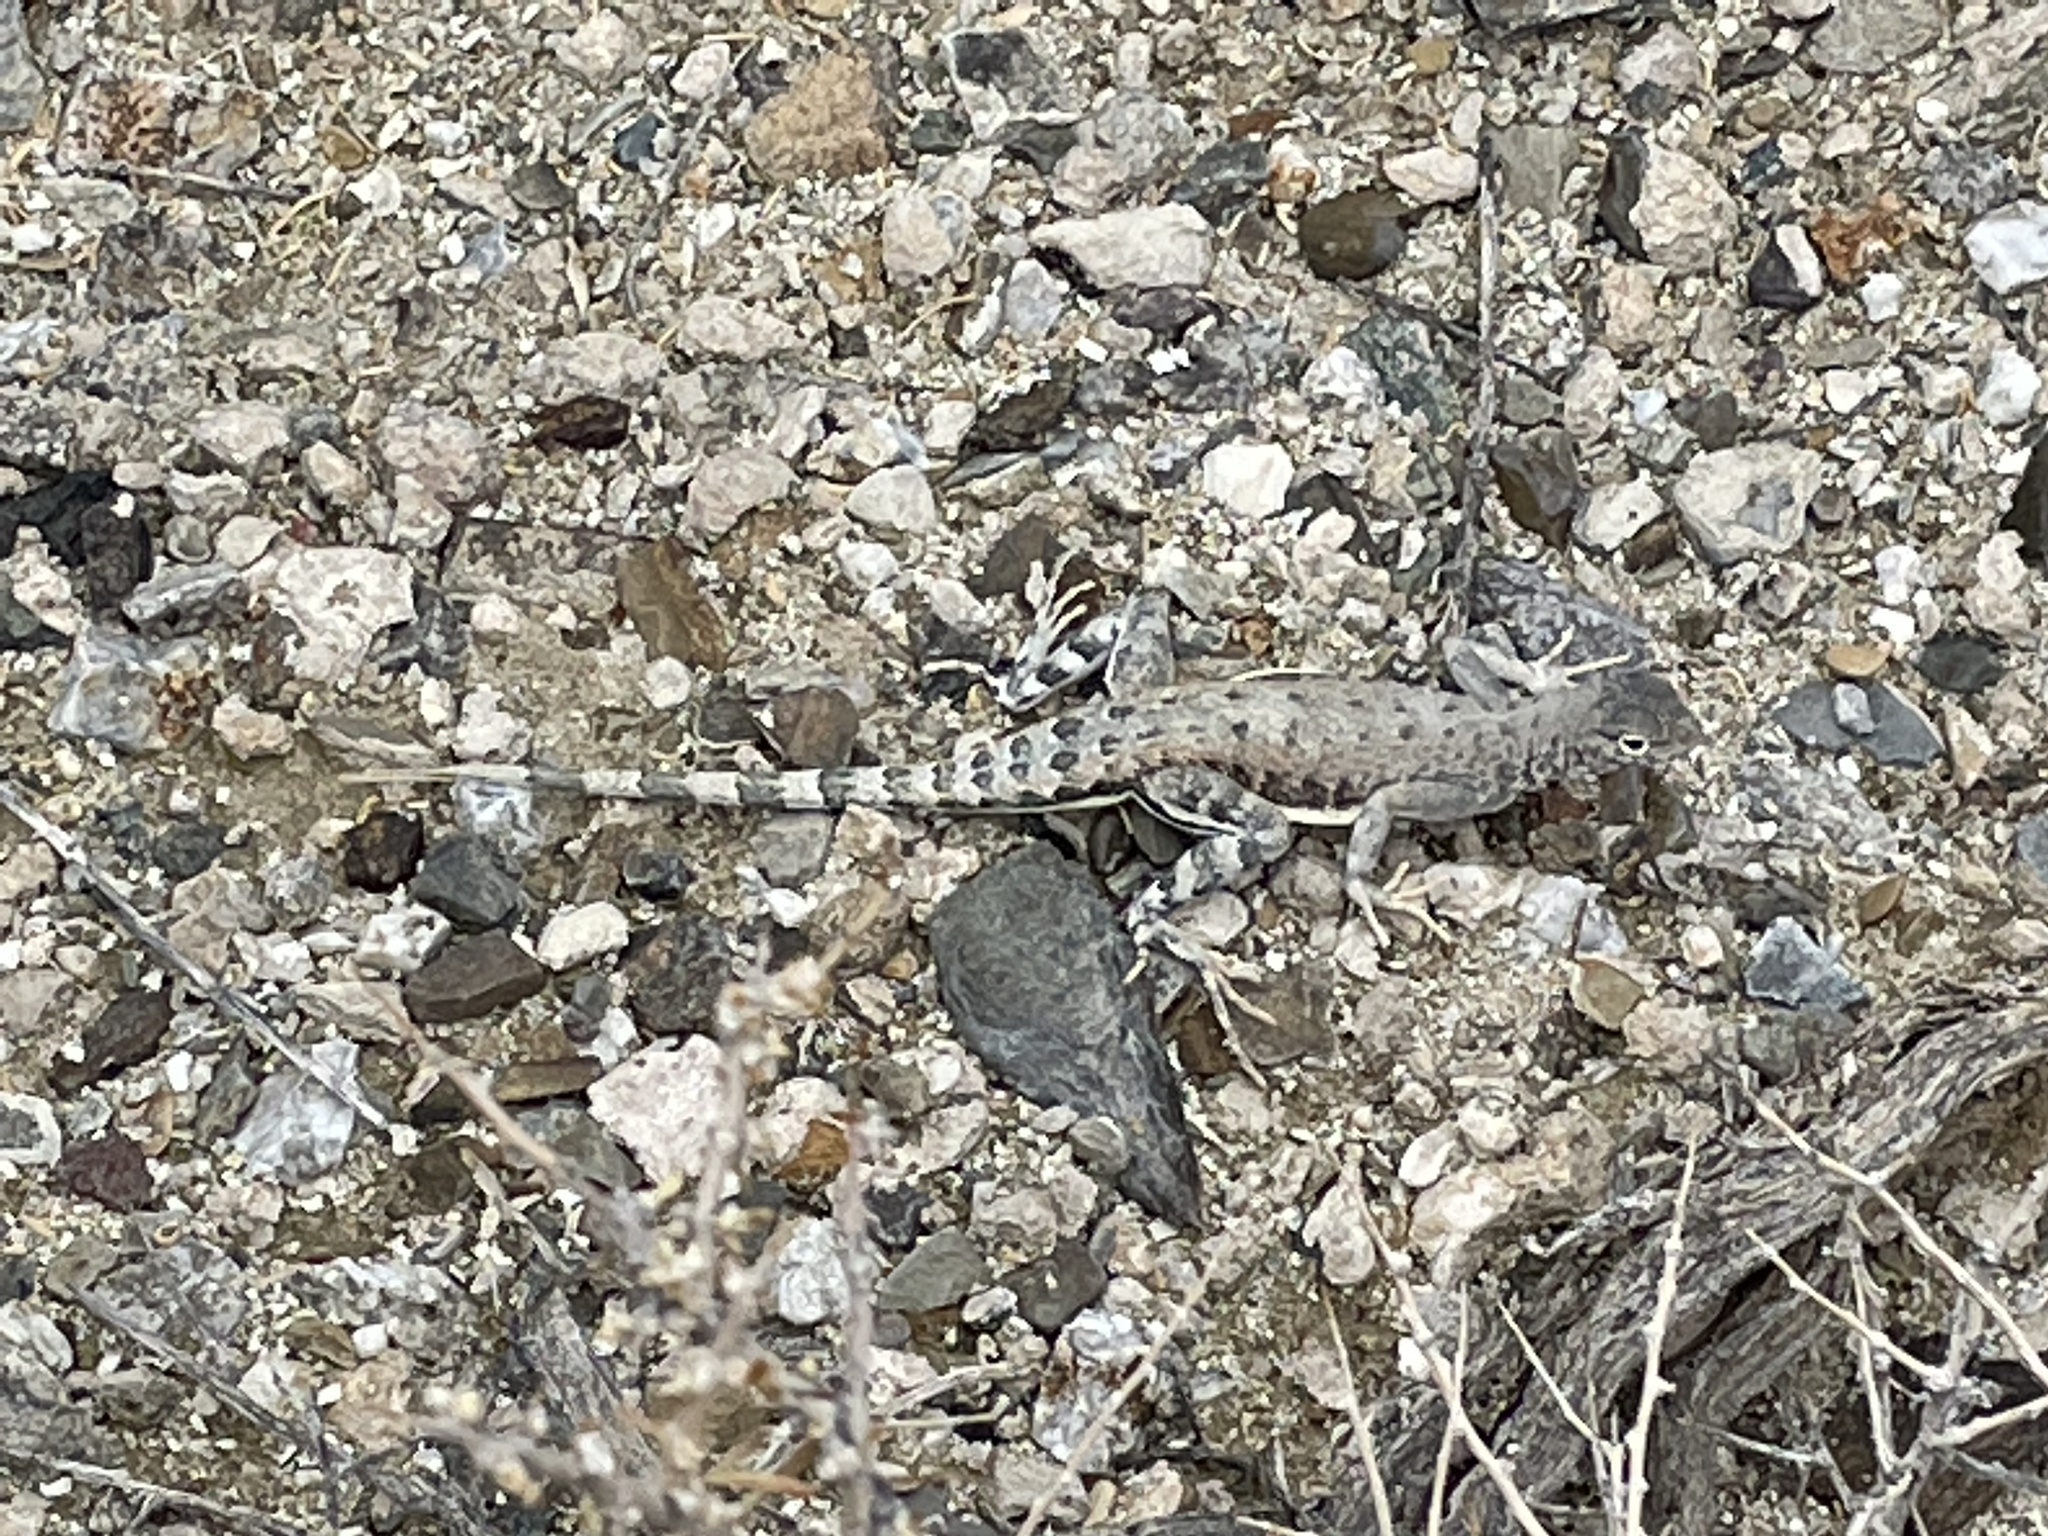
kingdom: Animalia
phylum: Chordata
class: Squamata
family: Phrynosomatidae
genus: Callisaurus
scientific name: Callisaurus draconoides
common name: Zebra-tailed lizard
